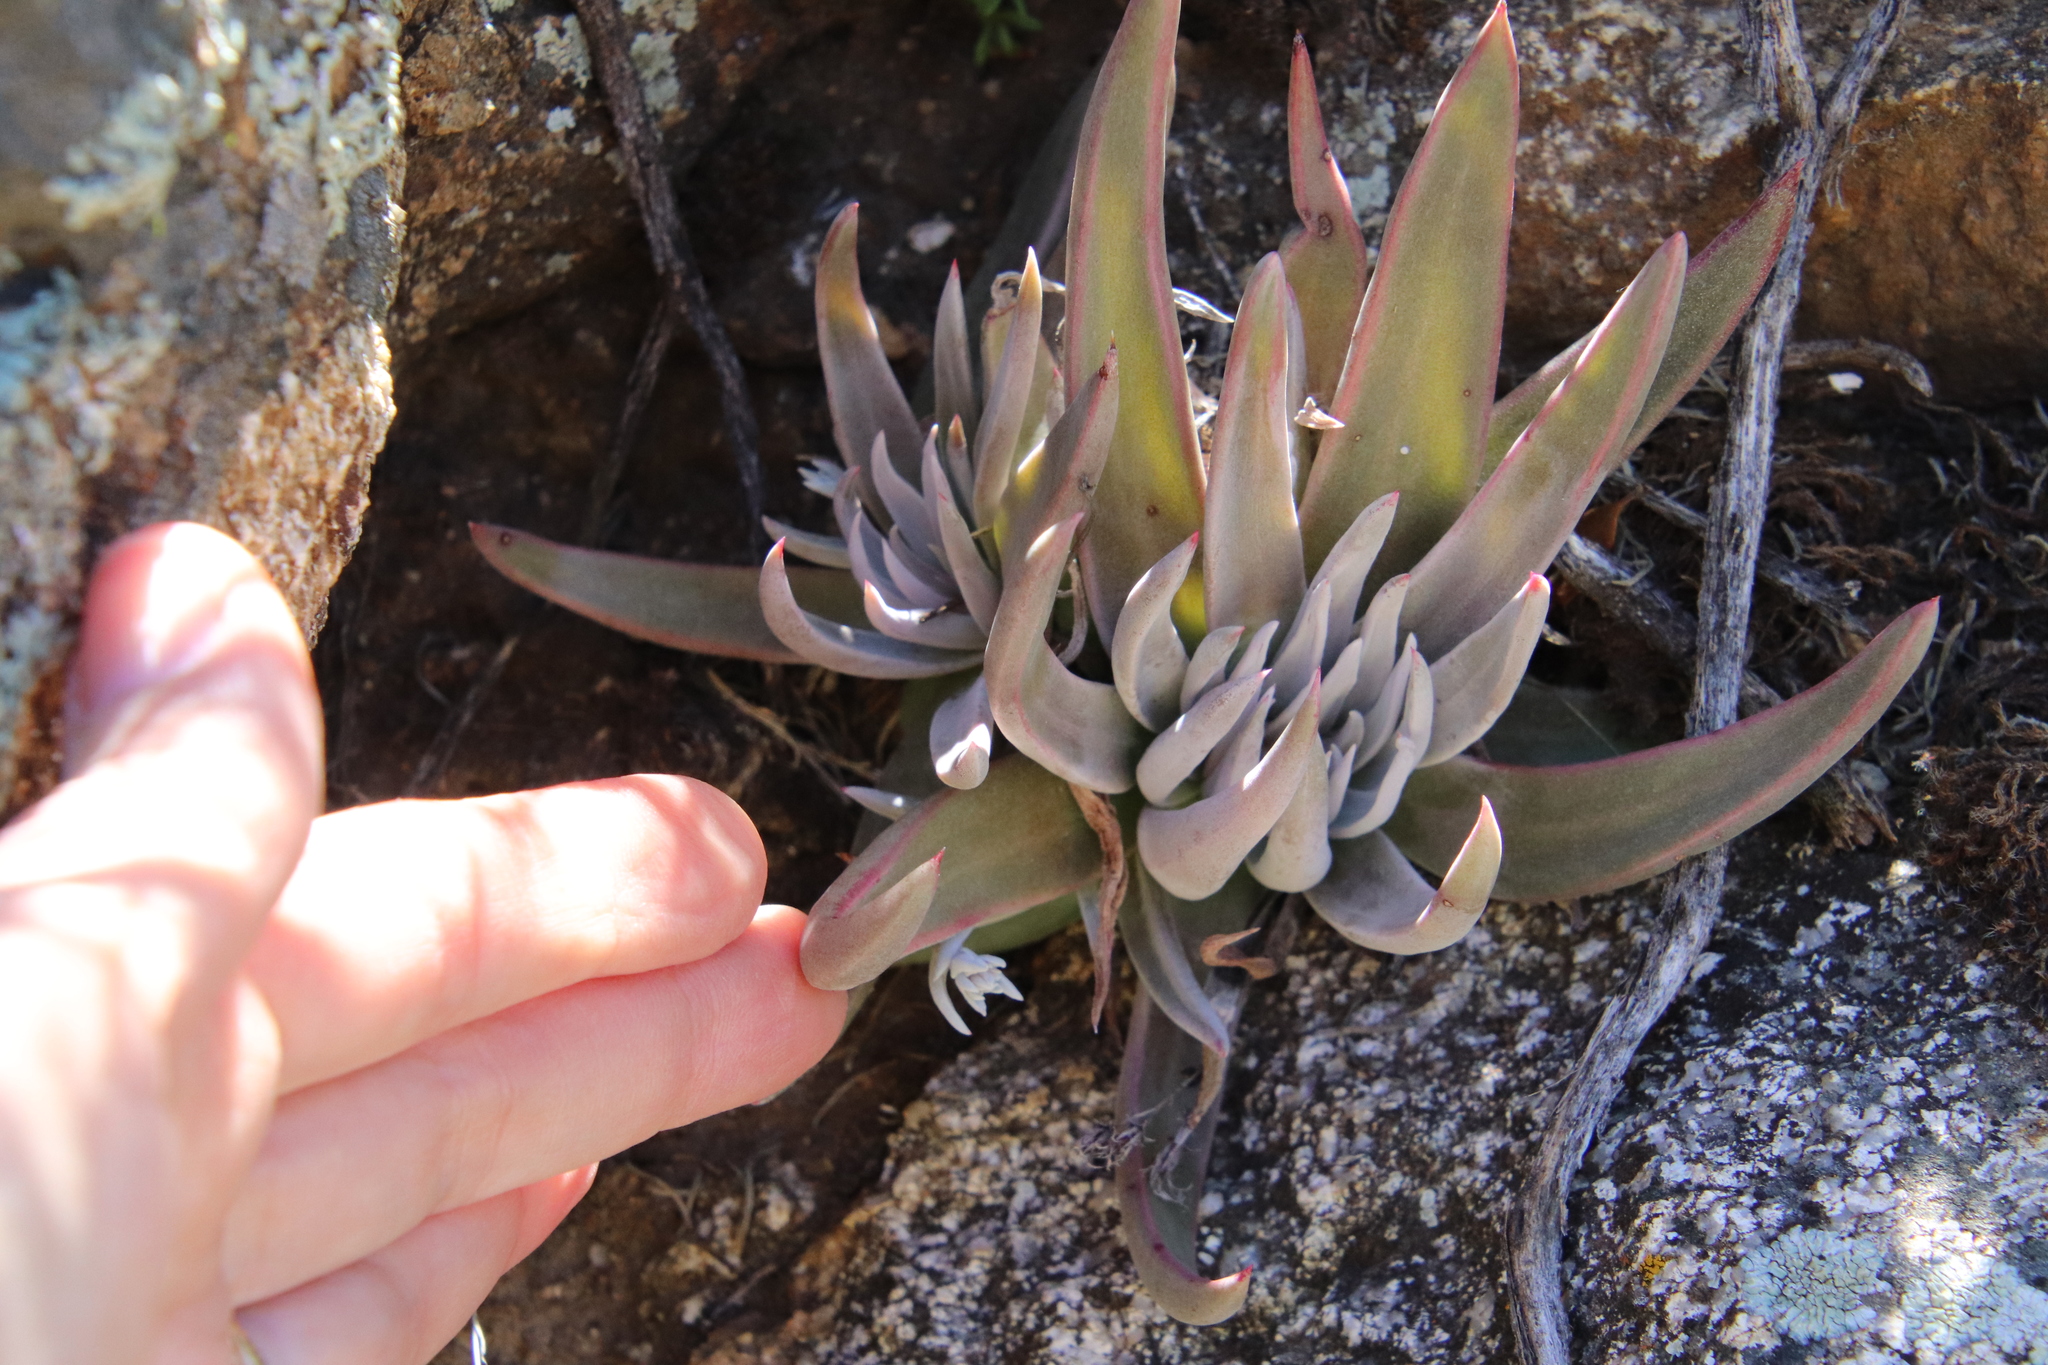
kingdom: Plantae
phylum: Tracheophyta
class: Magnoliopsida
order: Saxifragales
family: Crassulaceae
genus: Dudleya
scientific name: Dudleya abramsii
